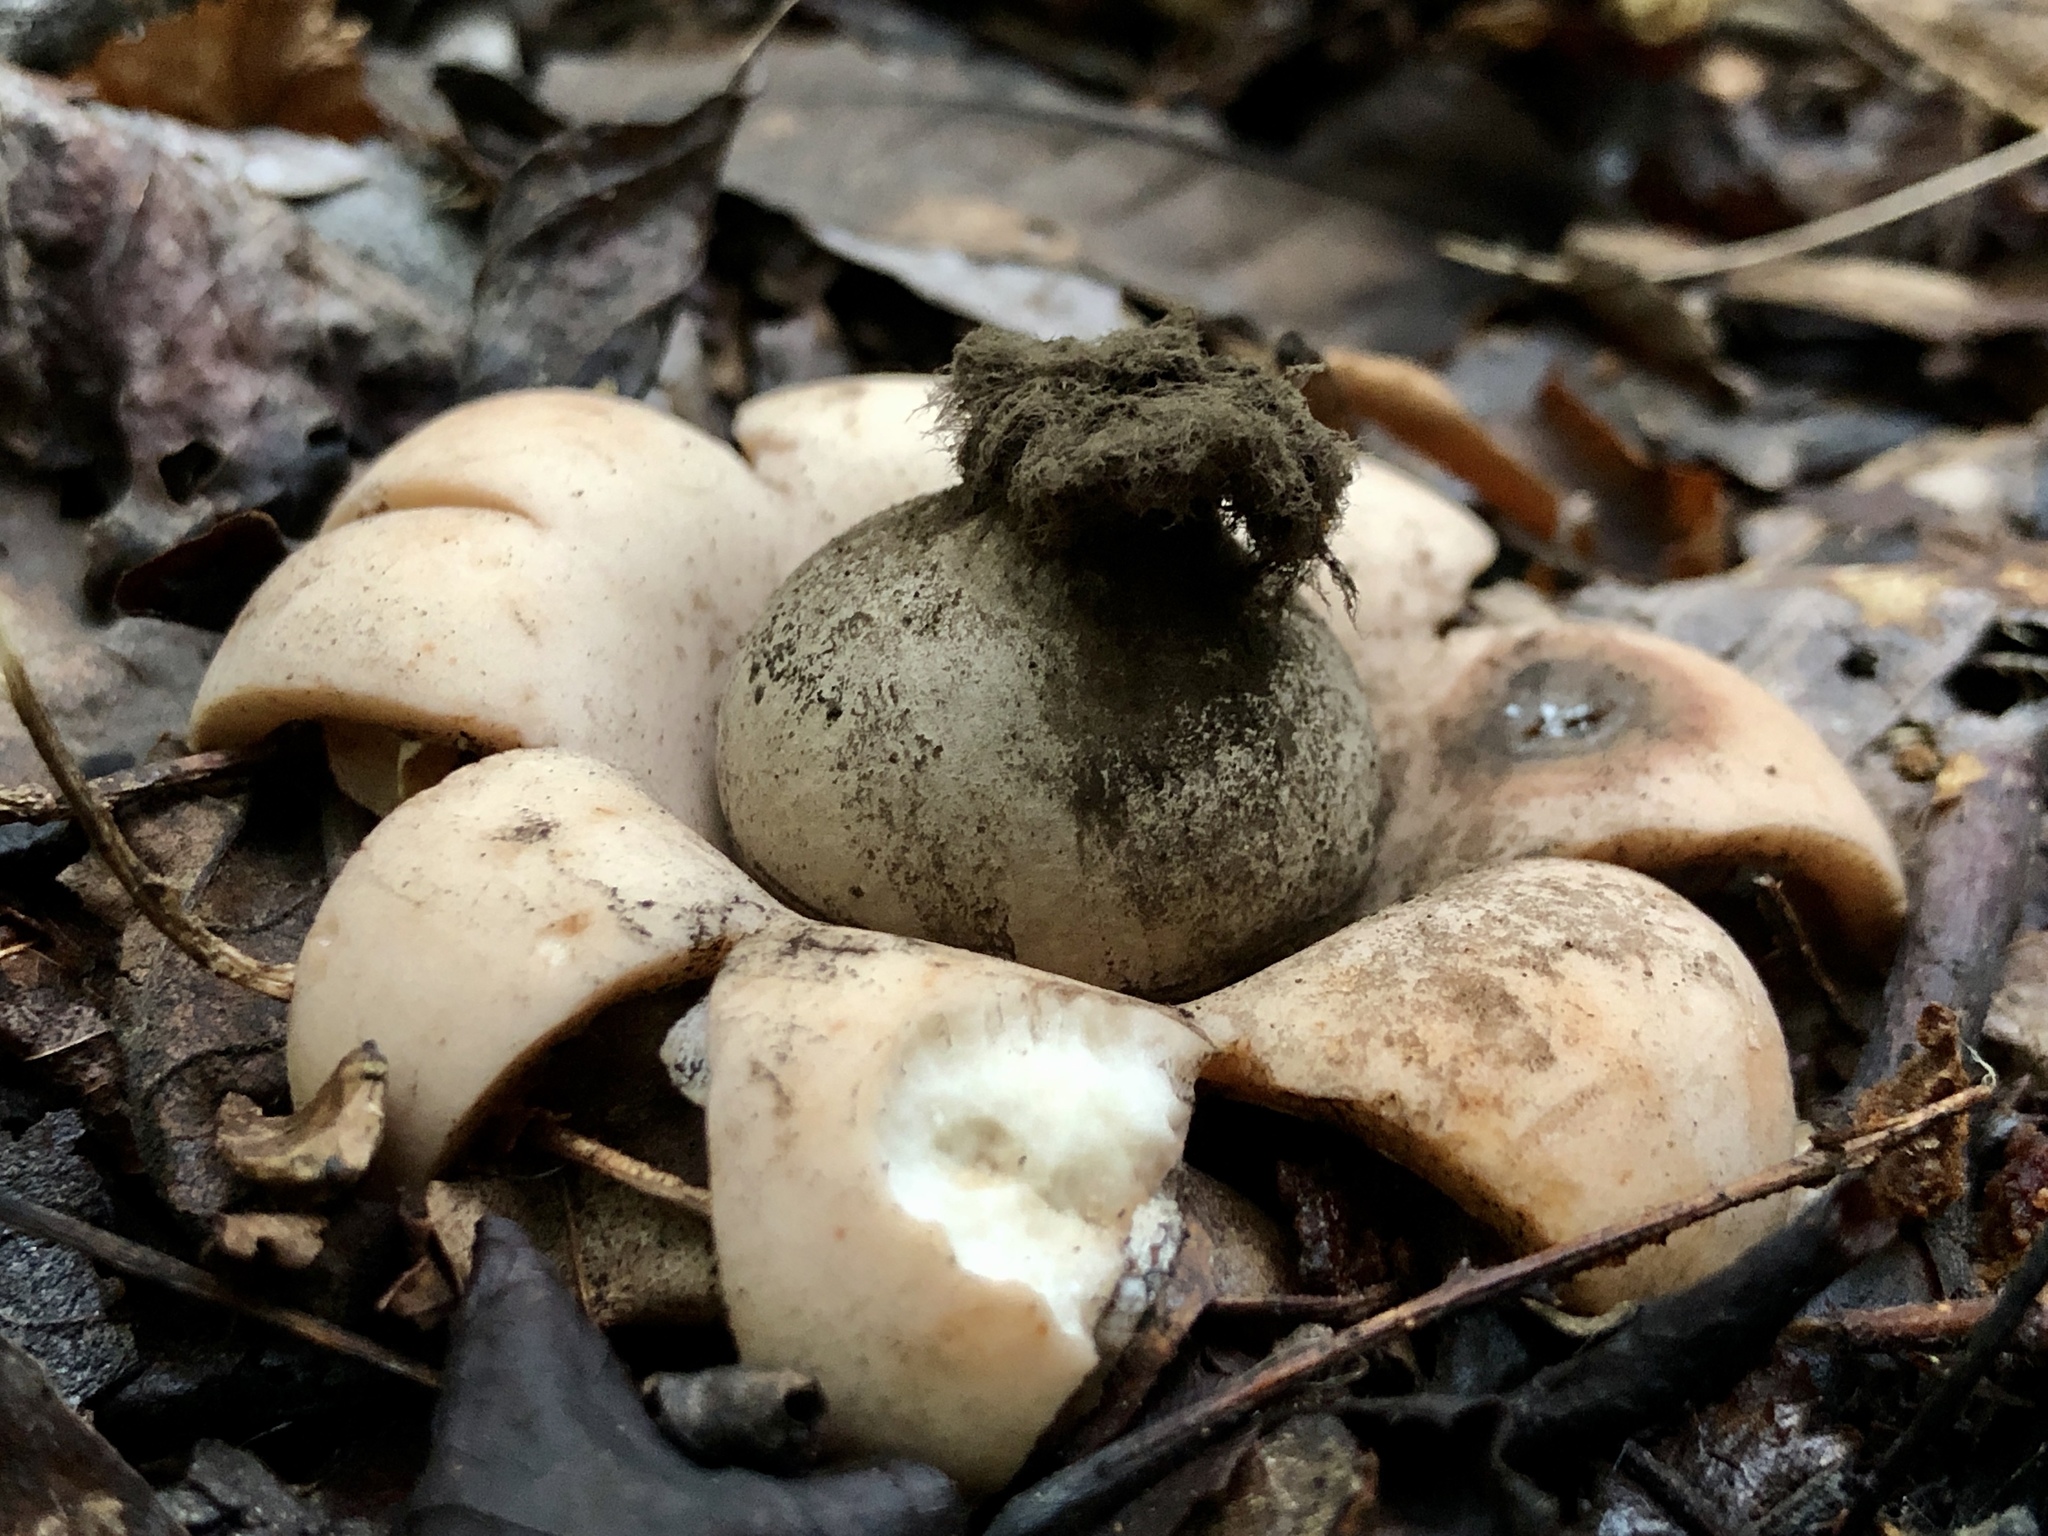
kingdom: Fungi
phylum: Basidiomycota
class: Agaricomycetes
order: Geastrales
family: Geastraceae
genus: Geastrum
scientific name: Geastrum saccatum
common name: Rounded earthstar
